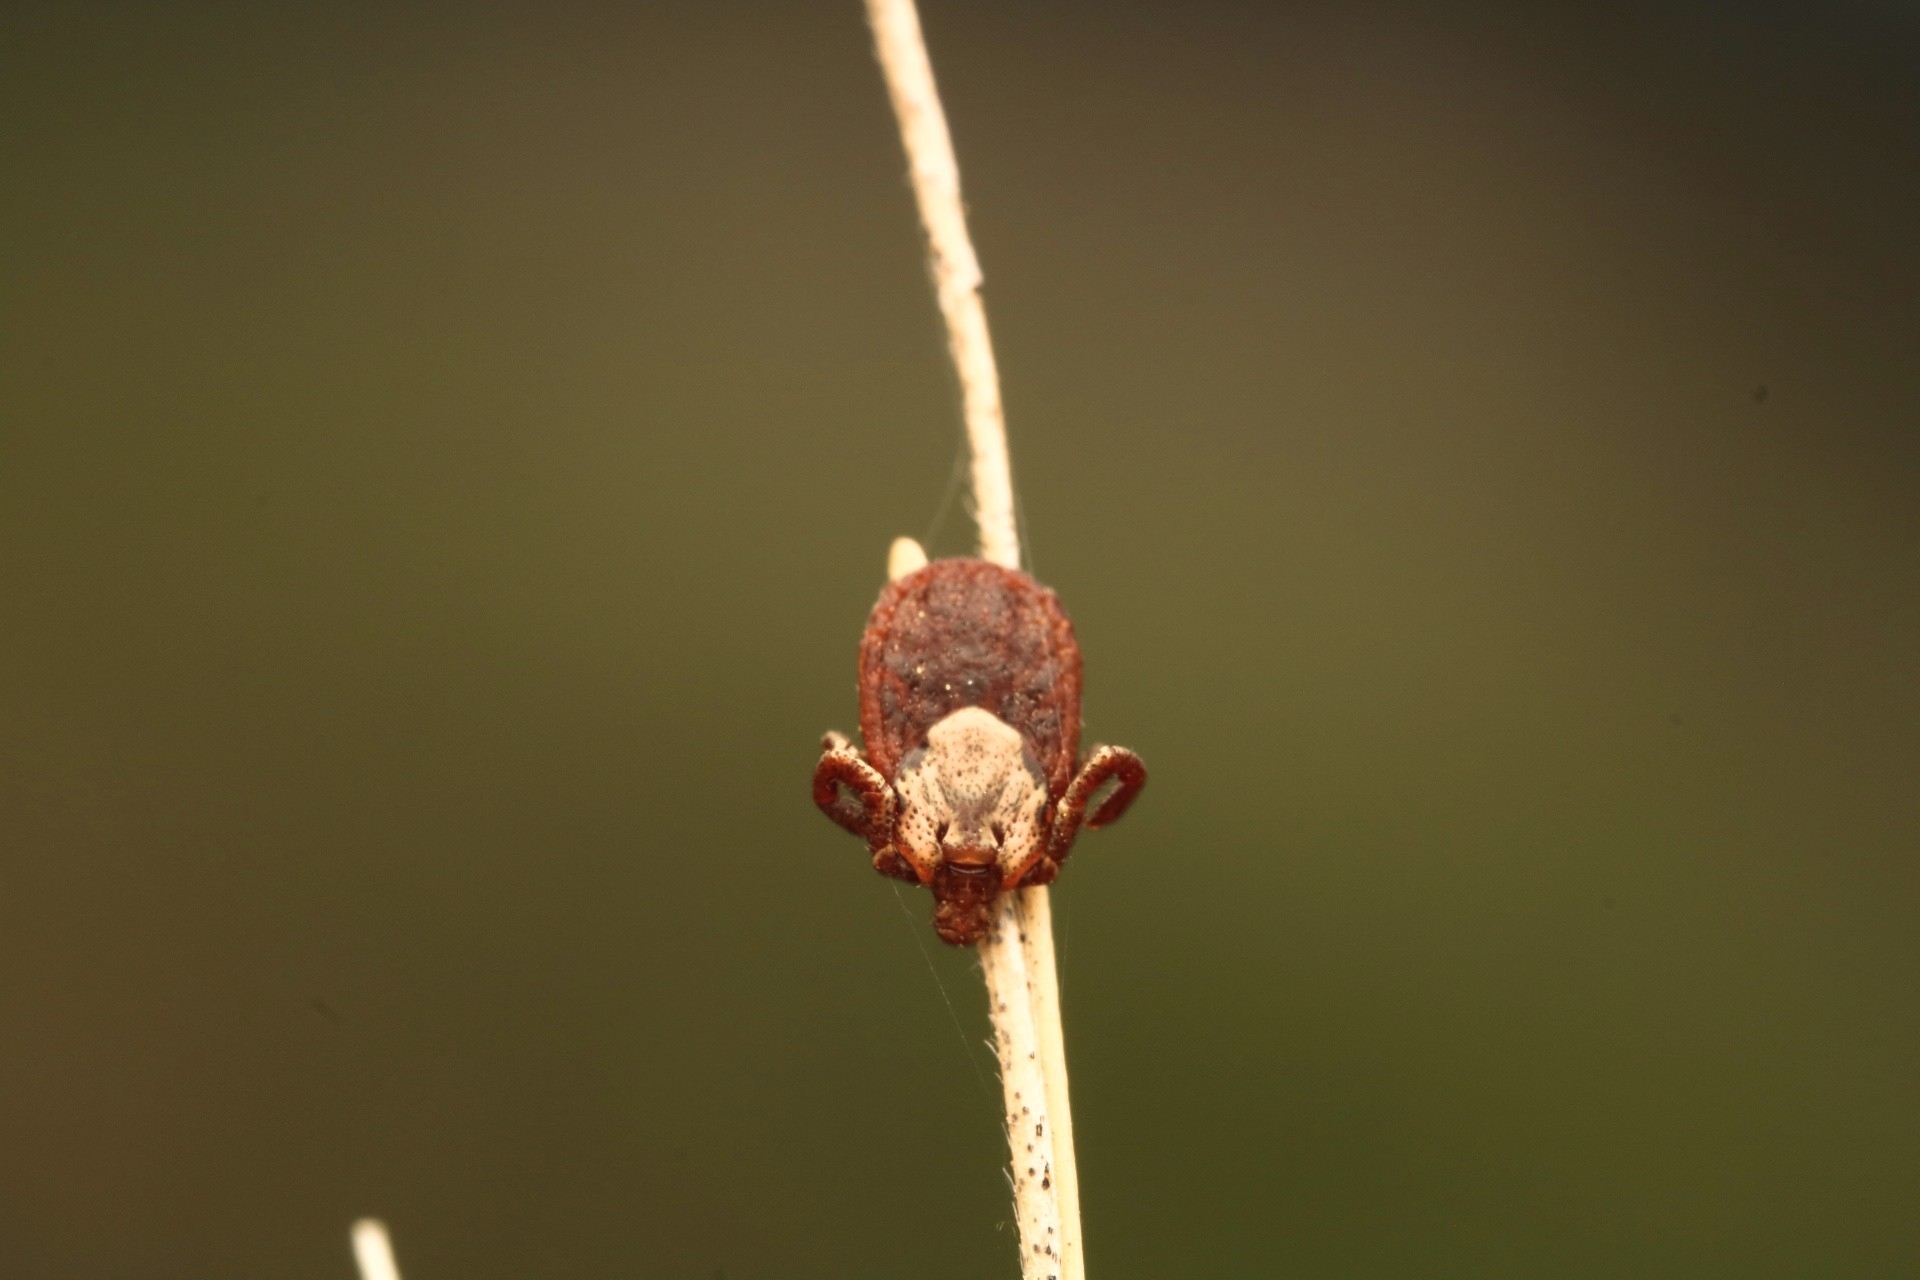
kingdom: Animalia
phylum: Arthropoda
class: Arachnida
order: Ixodida
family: Ixodidae
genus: Dermacentor
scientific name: Dermacentor occidentalis
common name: Net tick
